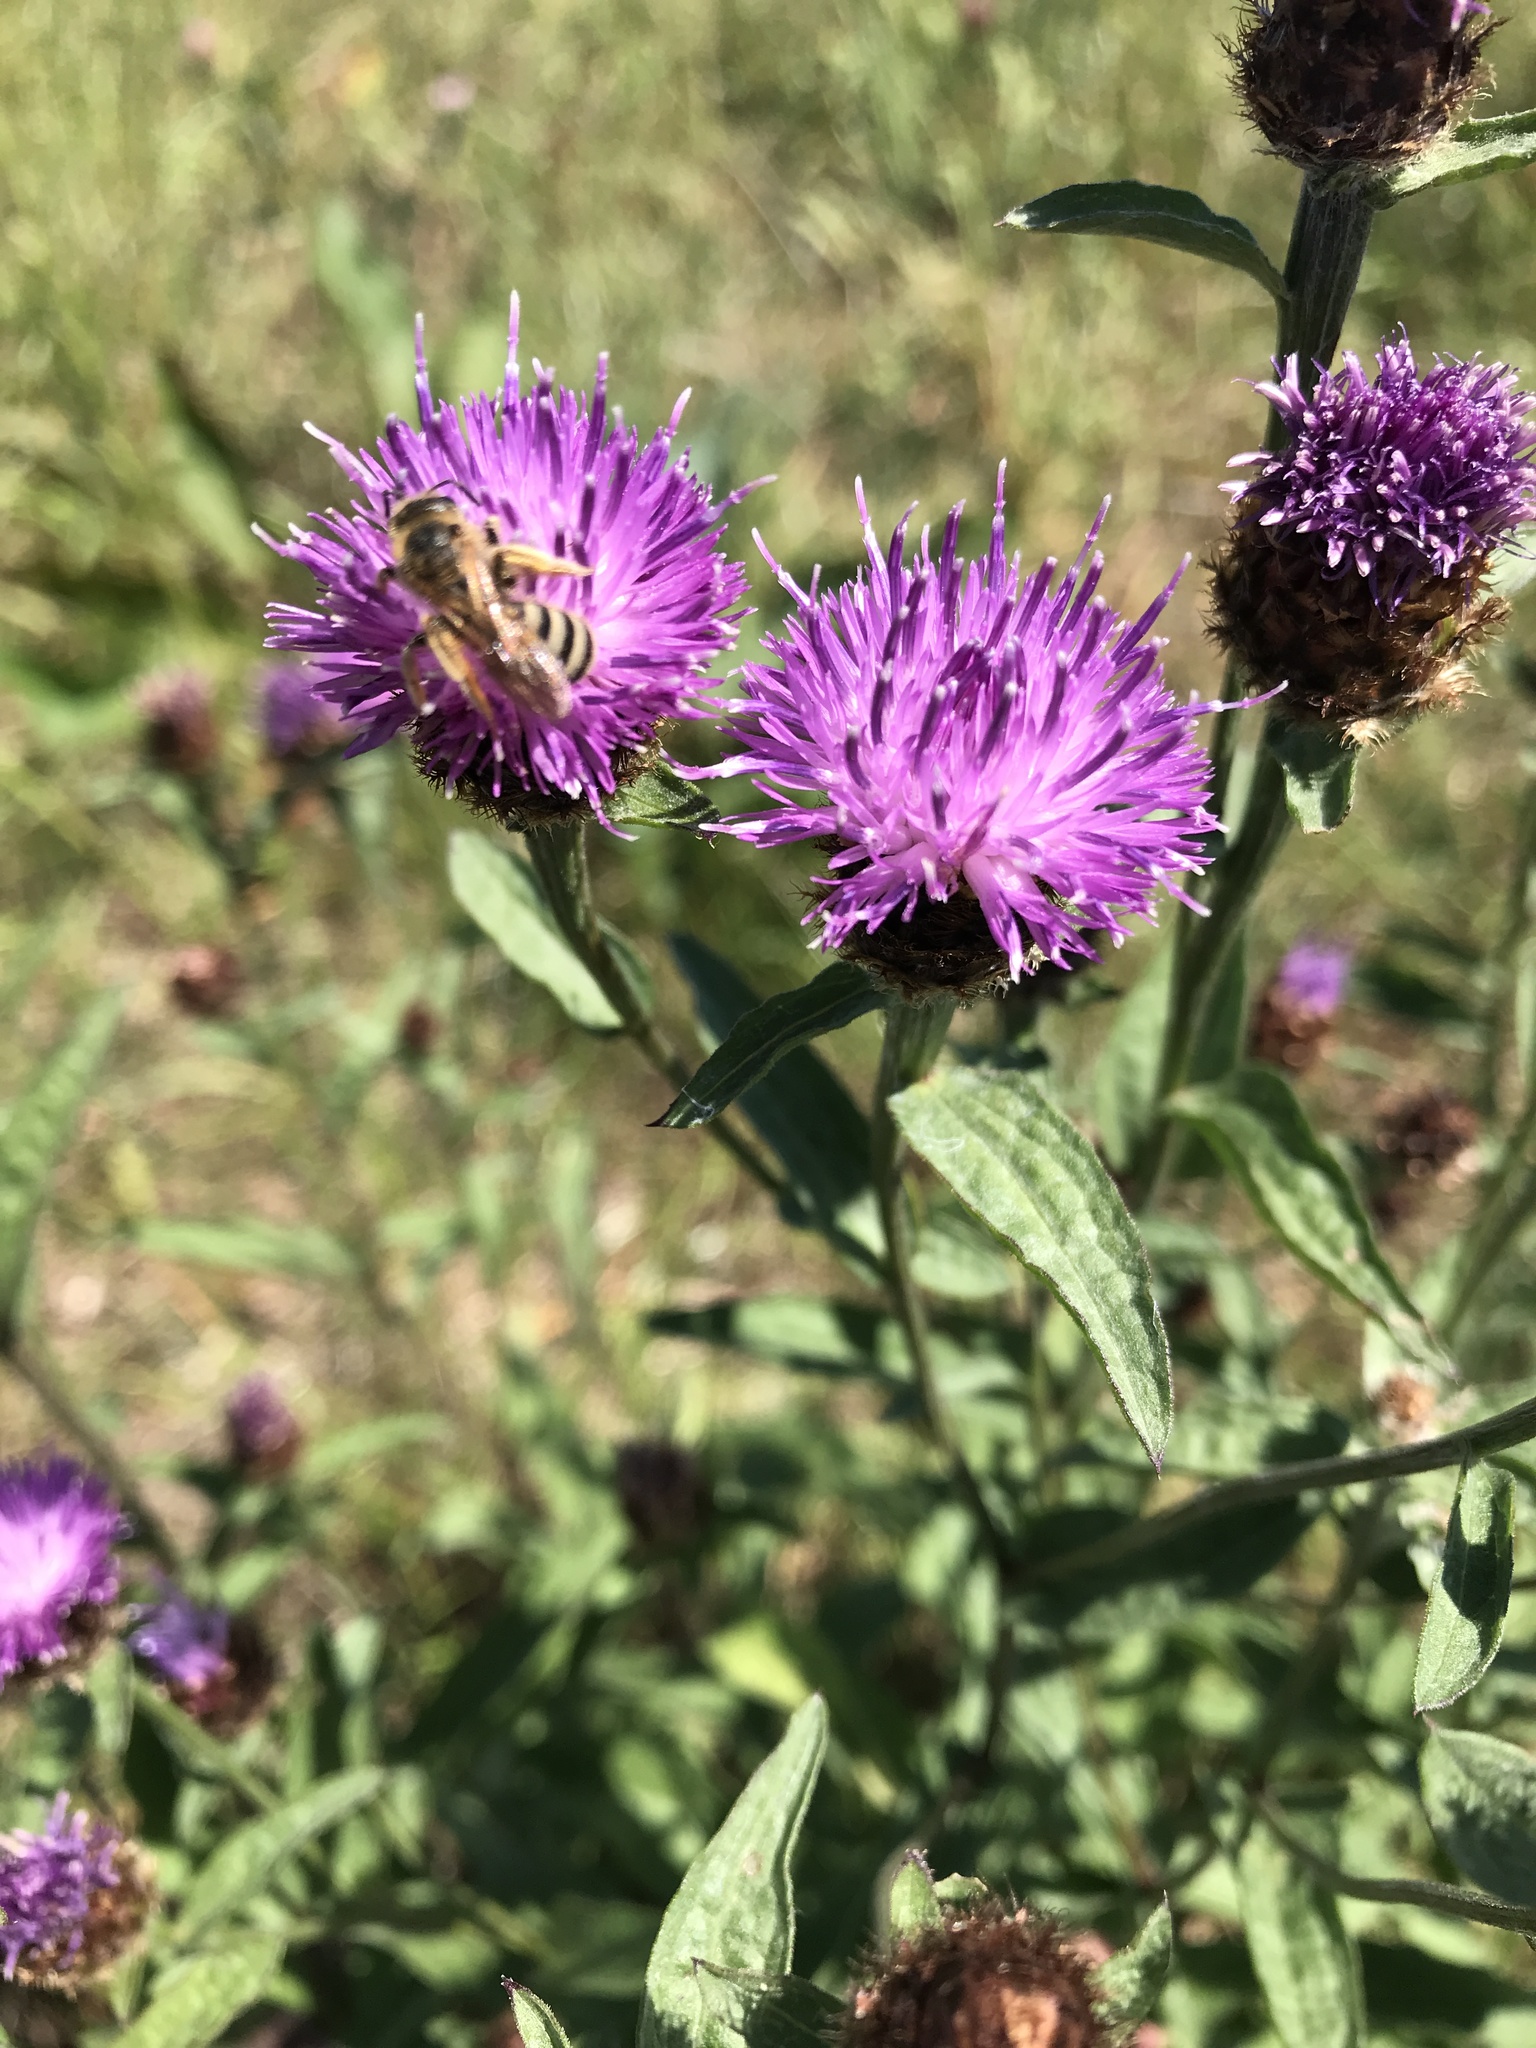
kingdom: Plantae
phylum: Tracheophyta
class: Magnoliopsida
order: Asterales
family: Asteraceae
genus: Centaurea
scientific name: Centaurea nigra
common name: Lesser knapweed
